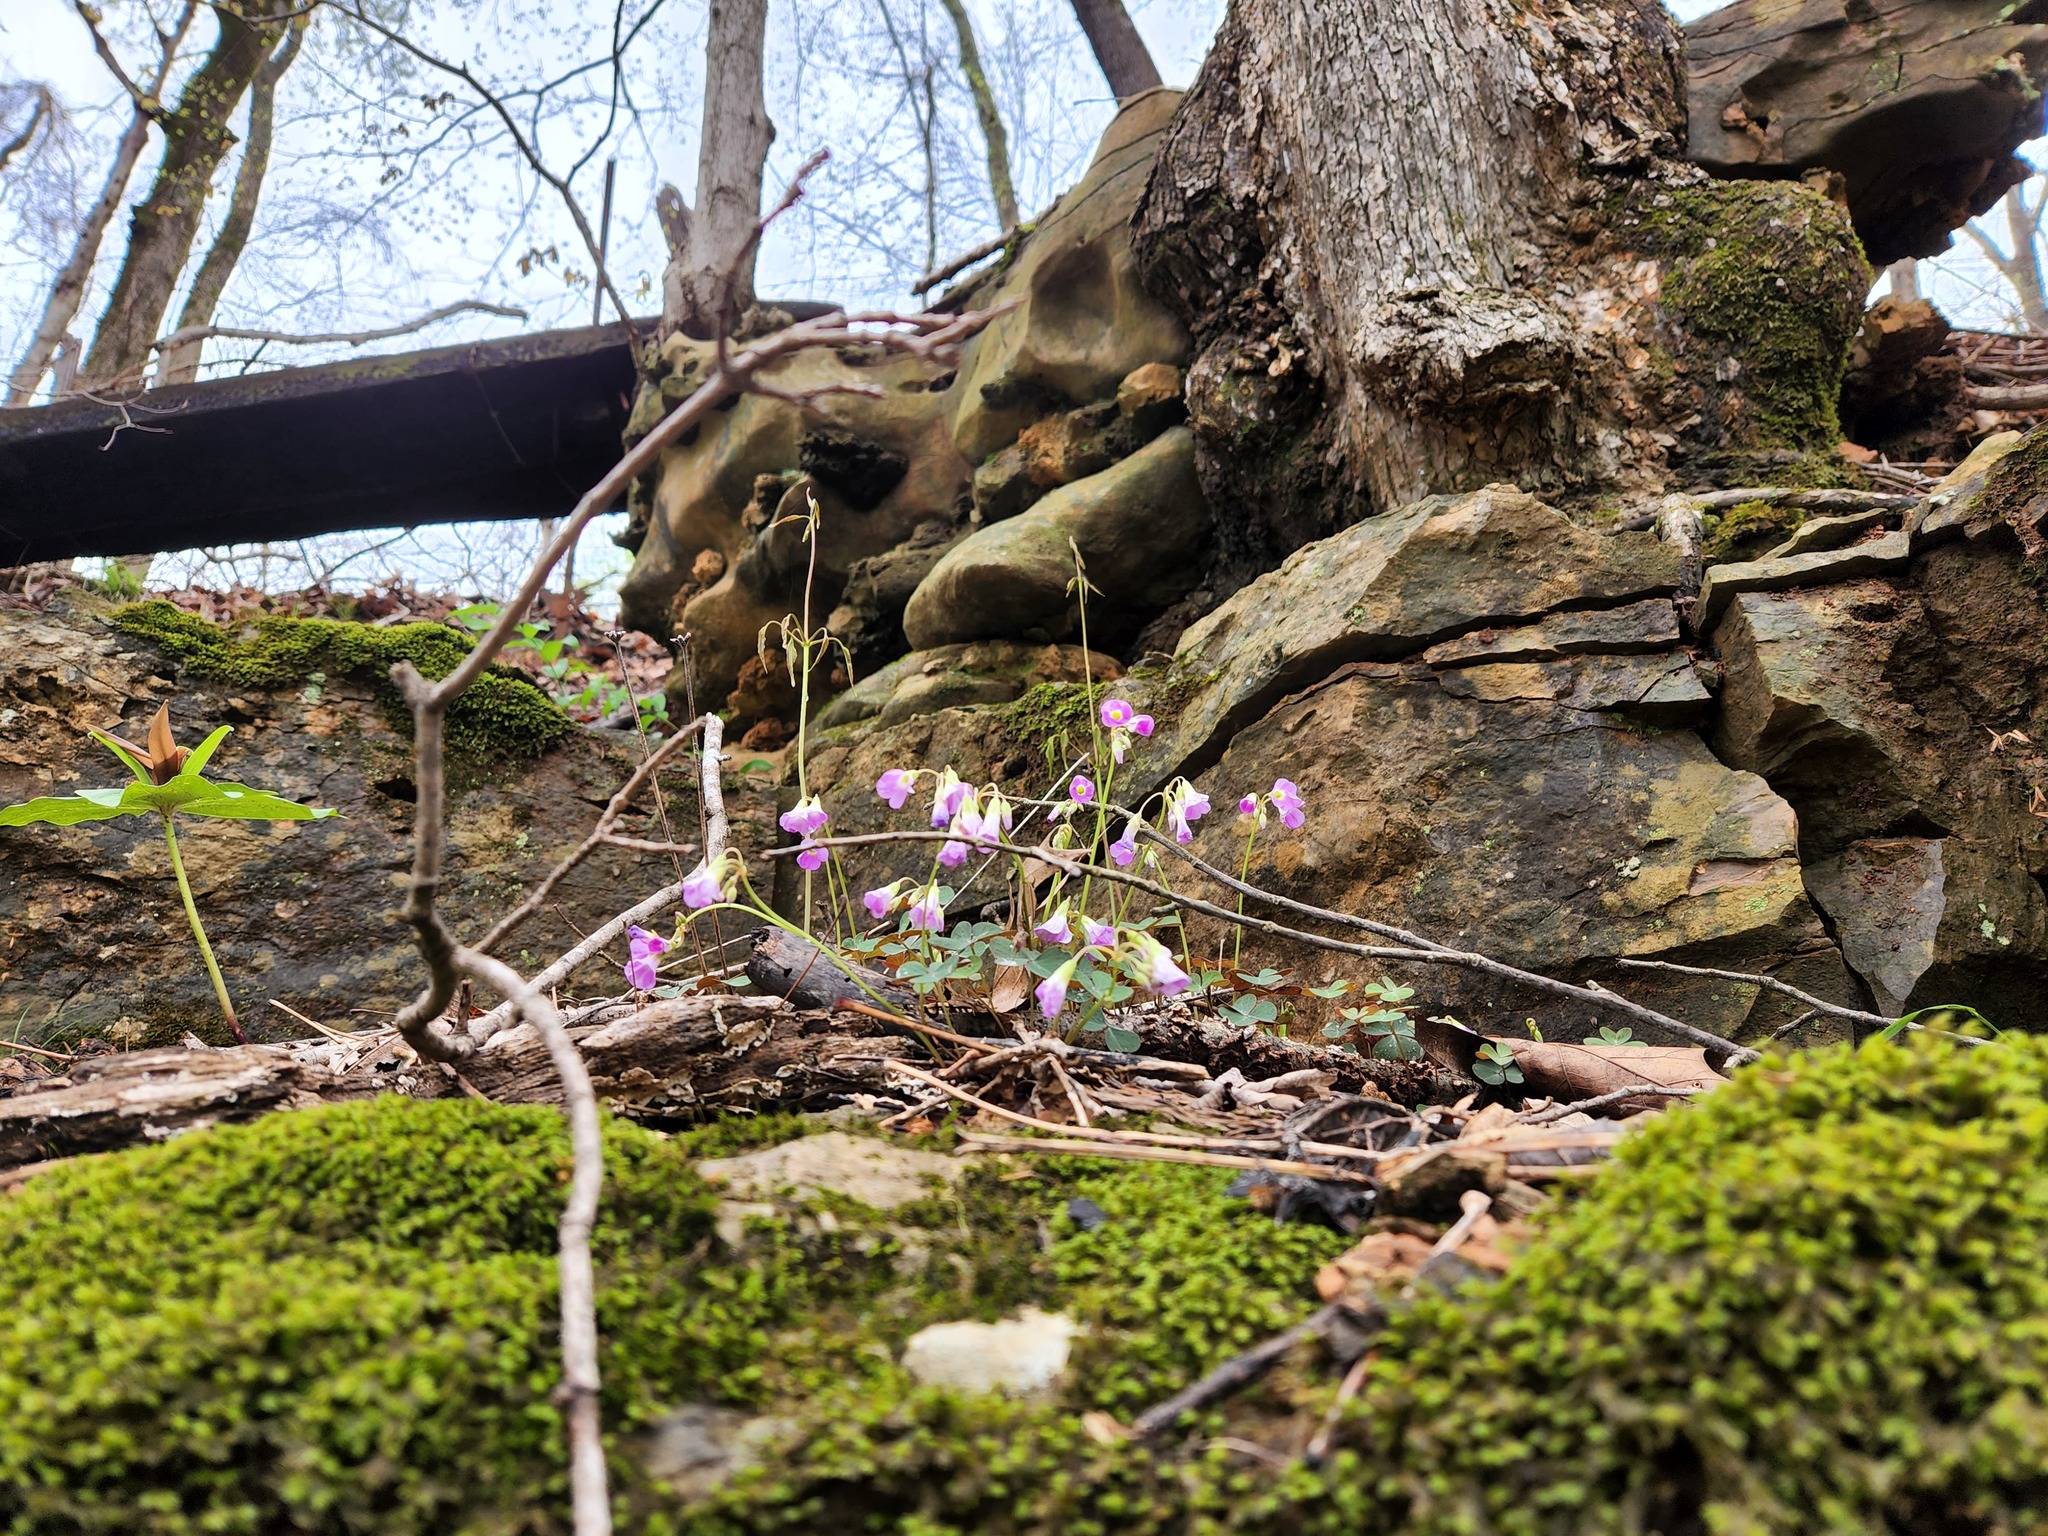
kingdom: Plantae
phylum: Tracheophyta
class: Magnoliopsida
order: Oxalidales
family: Oxalidaceae
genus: Oxalis
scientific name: Oxalis violacea
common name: Violet wood-sorrel
